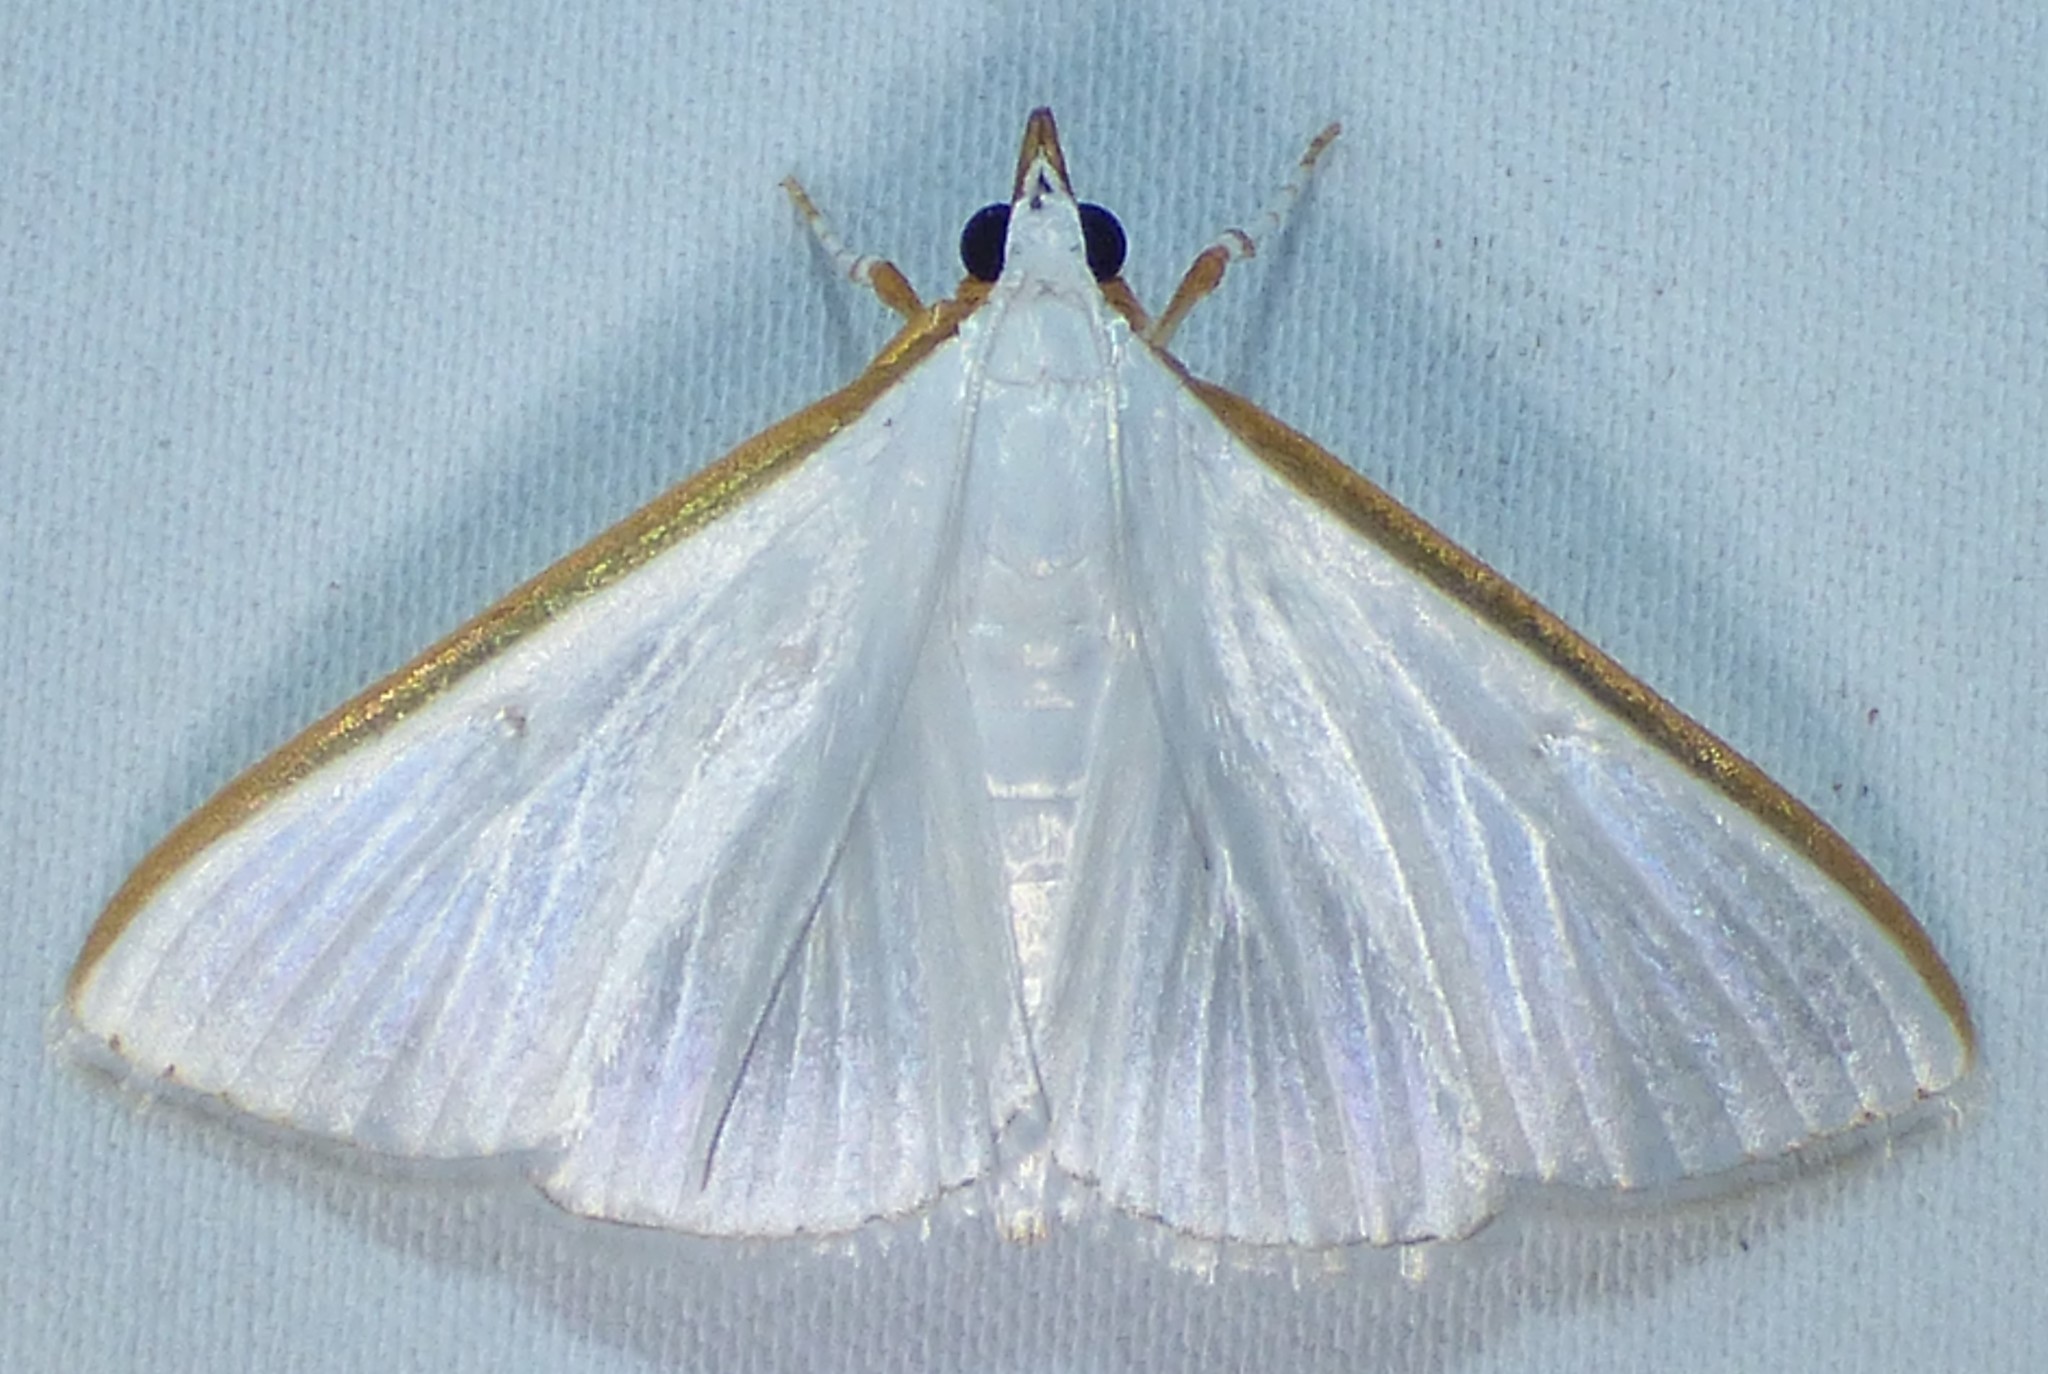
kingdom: Animalia
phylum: Arthropoda
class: Insecta
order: Lepidoptera
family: Crambidae
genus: Diaphania
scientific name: Diaphania costata
